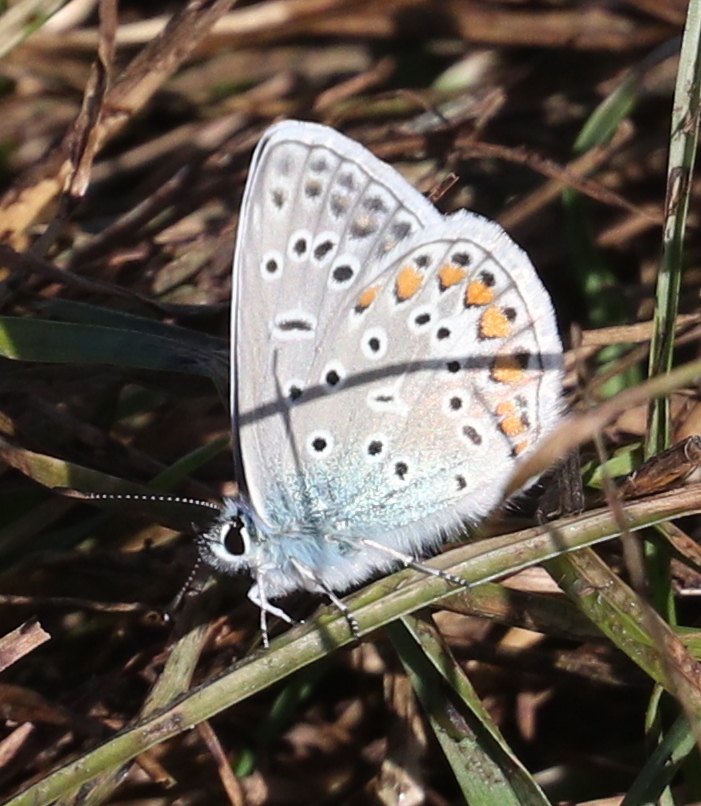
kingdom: Animalia
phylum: Arthropoda
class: Insecta
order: Lepidoptera
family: Lycaenidae
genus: Polyommatus
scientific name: Polyommatus icarus
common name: Common blue
